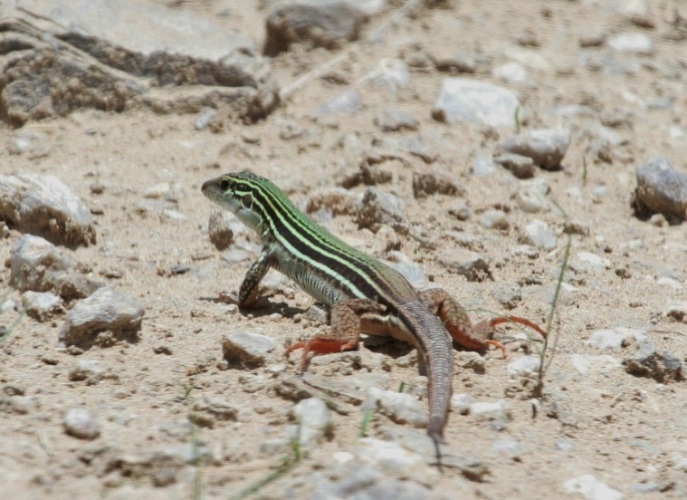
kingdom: Animalia
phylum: Chordata
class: Squamata
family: Teiidae
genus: Aspidoscelis
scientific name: Aspidoscelis costatus
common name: Western mexico whiptail
